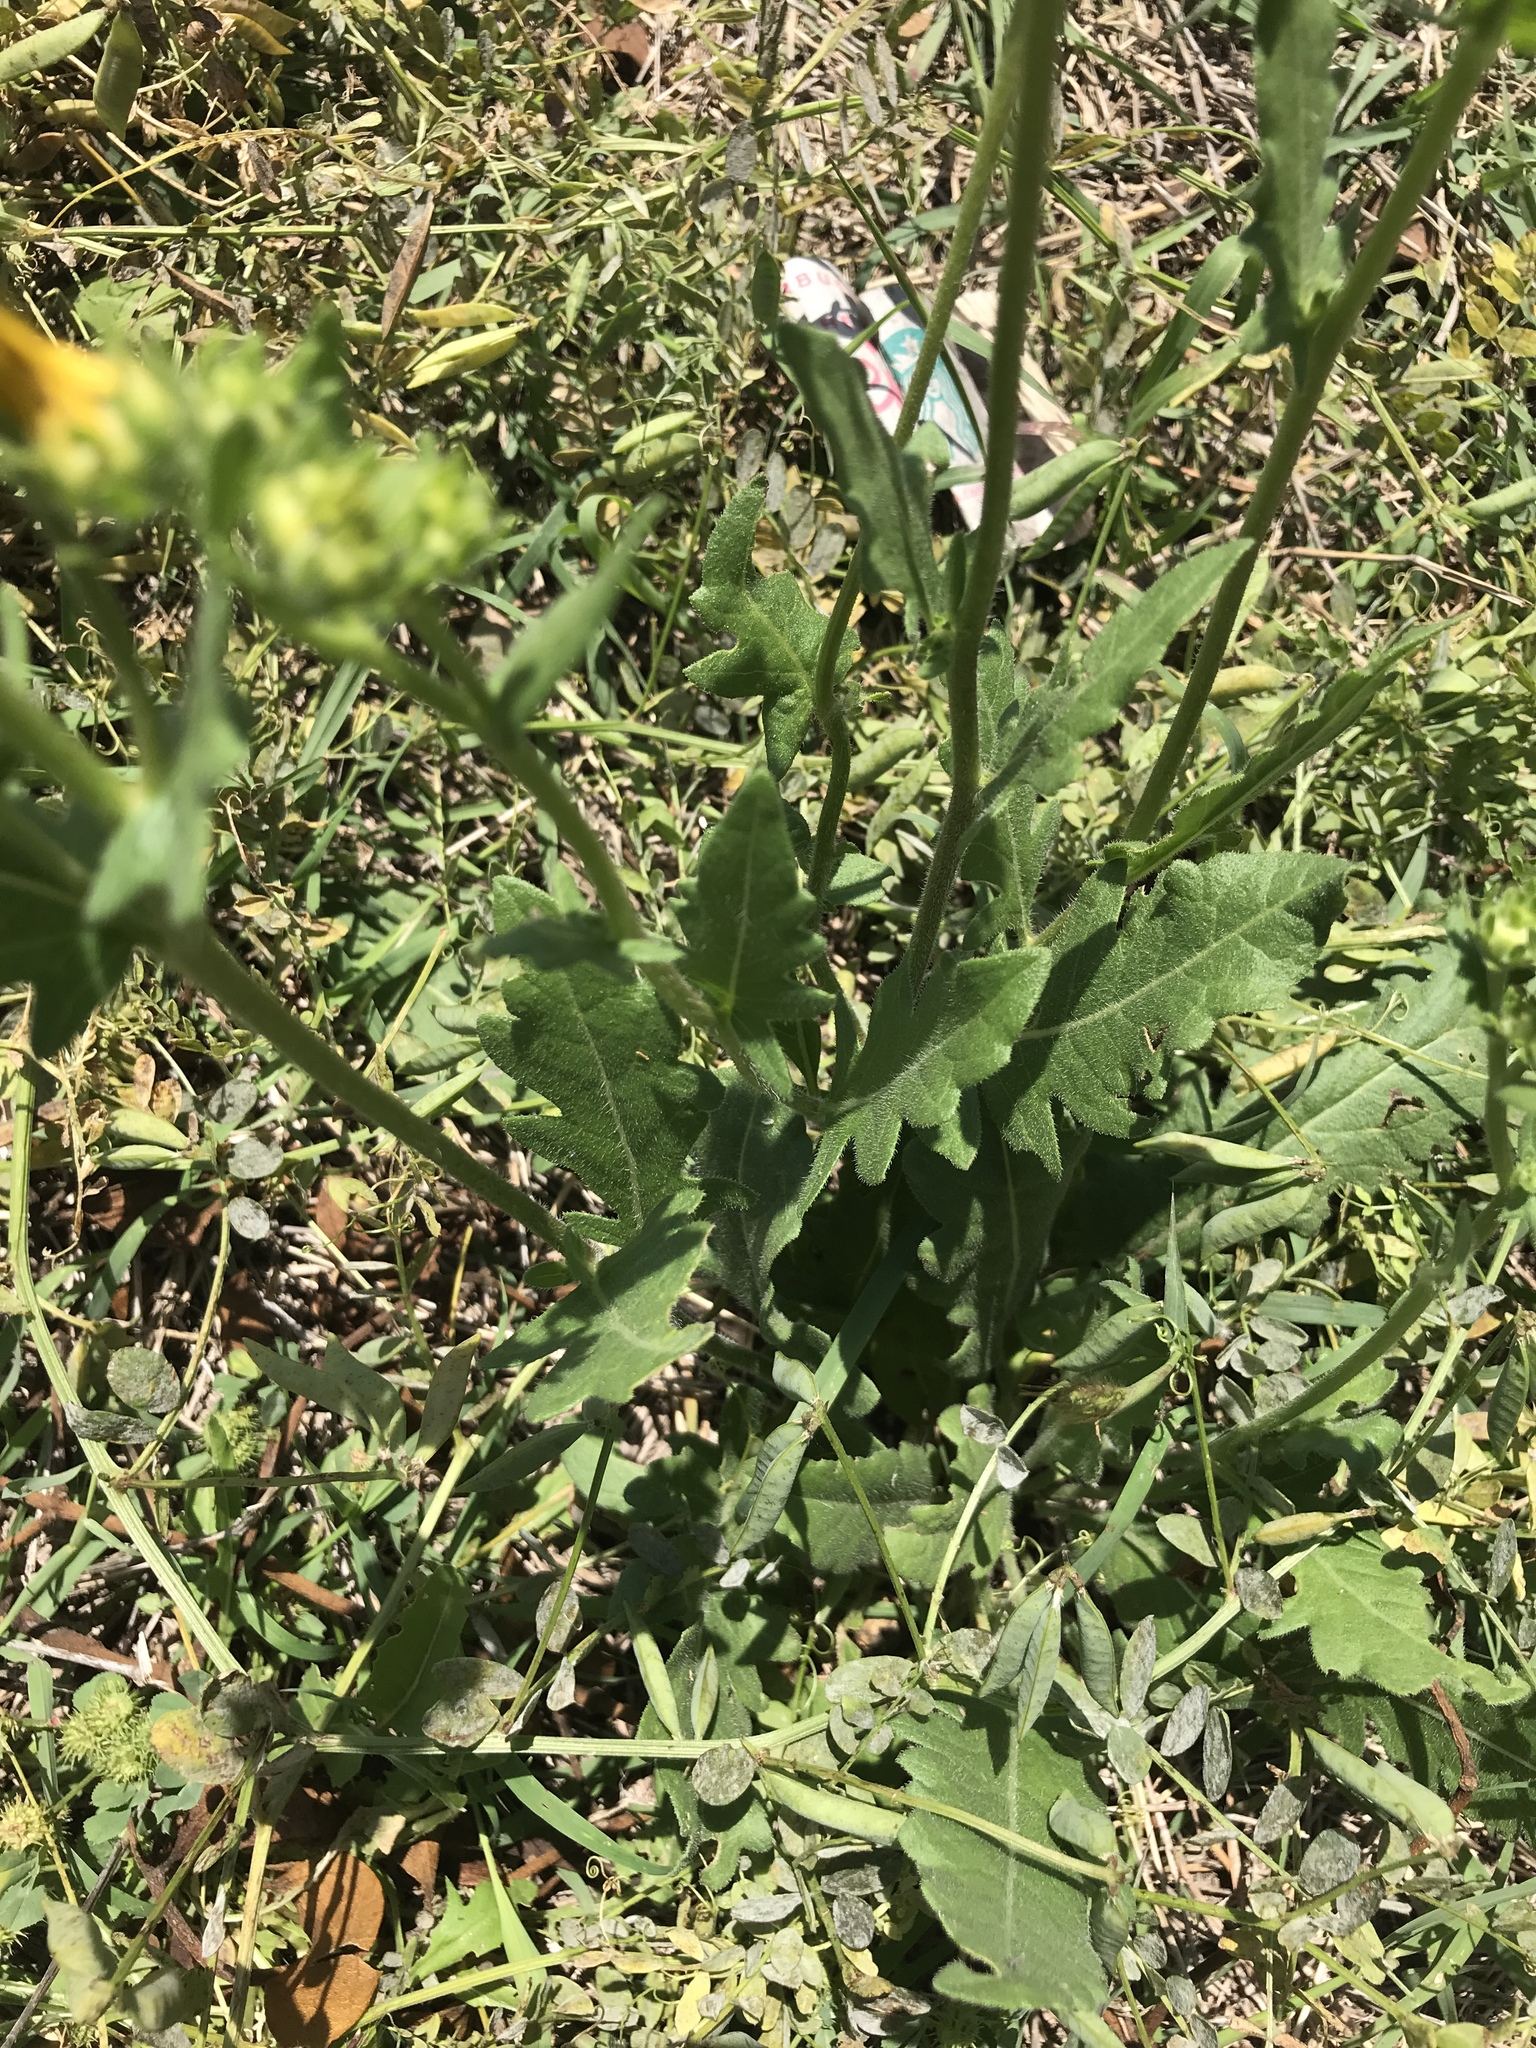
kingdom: Plantae
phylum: Tracheophyta
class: Magnoliopsida
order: Asterales
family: Asteraceae
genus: Engelmannia
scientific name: Engelmannia peristenia
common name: Engelmann's daisy
